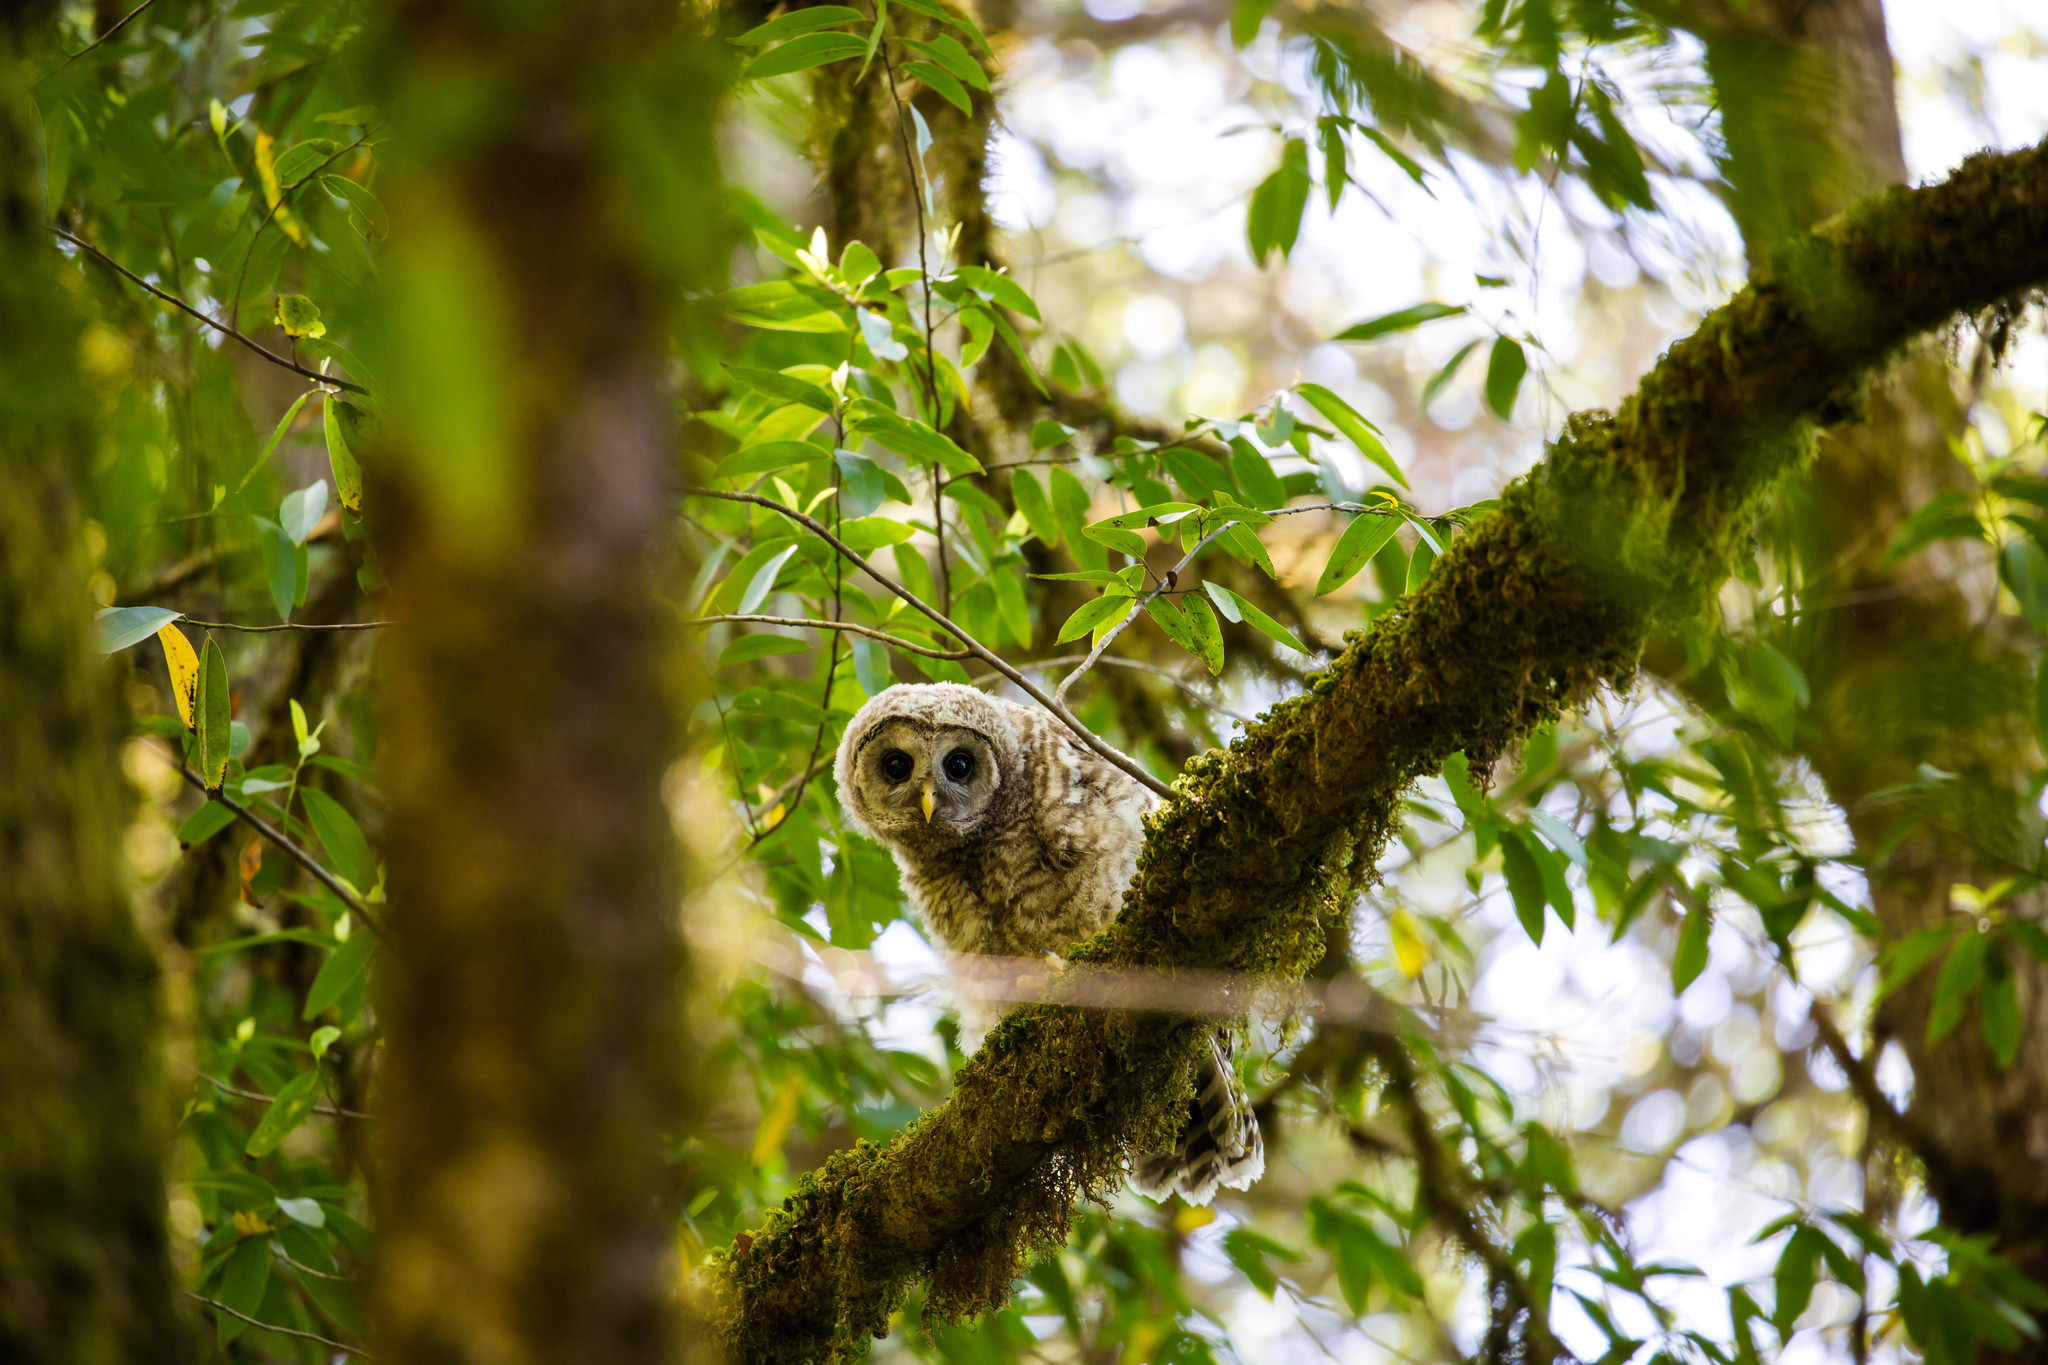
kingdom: Animalia
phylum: Chordata
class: Aves
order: Strigiformes
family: Strigidae
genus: Strix
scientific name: Strix varia
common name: Barred owl
